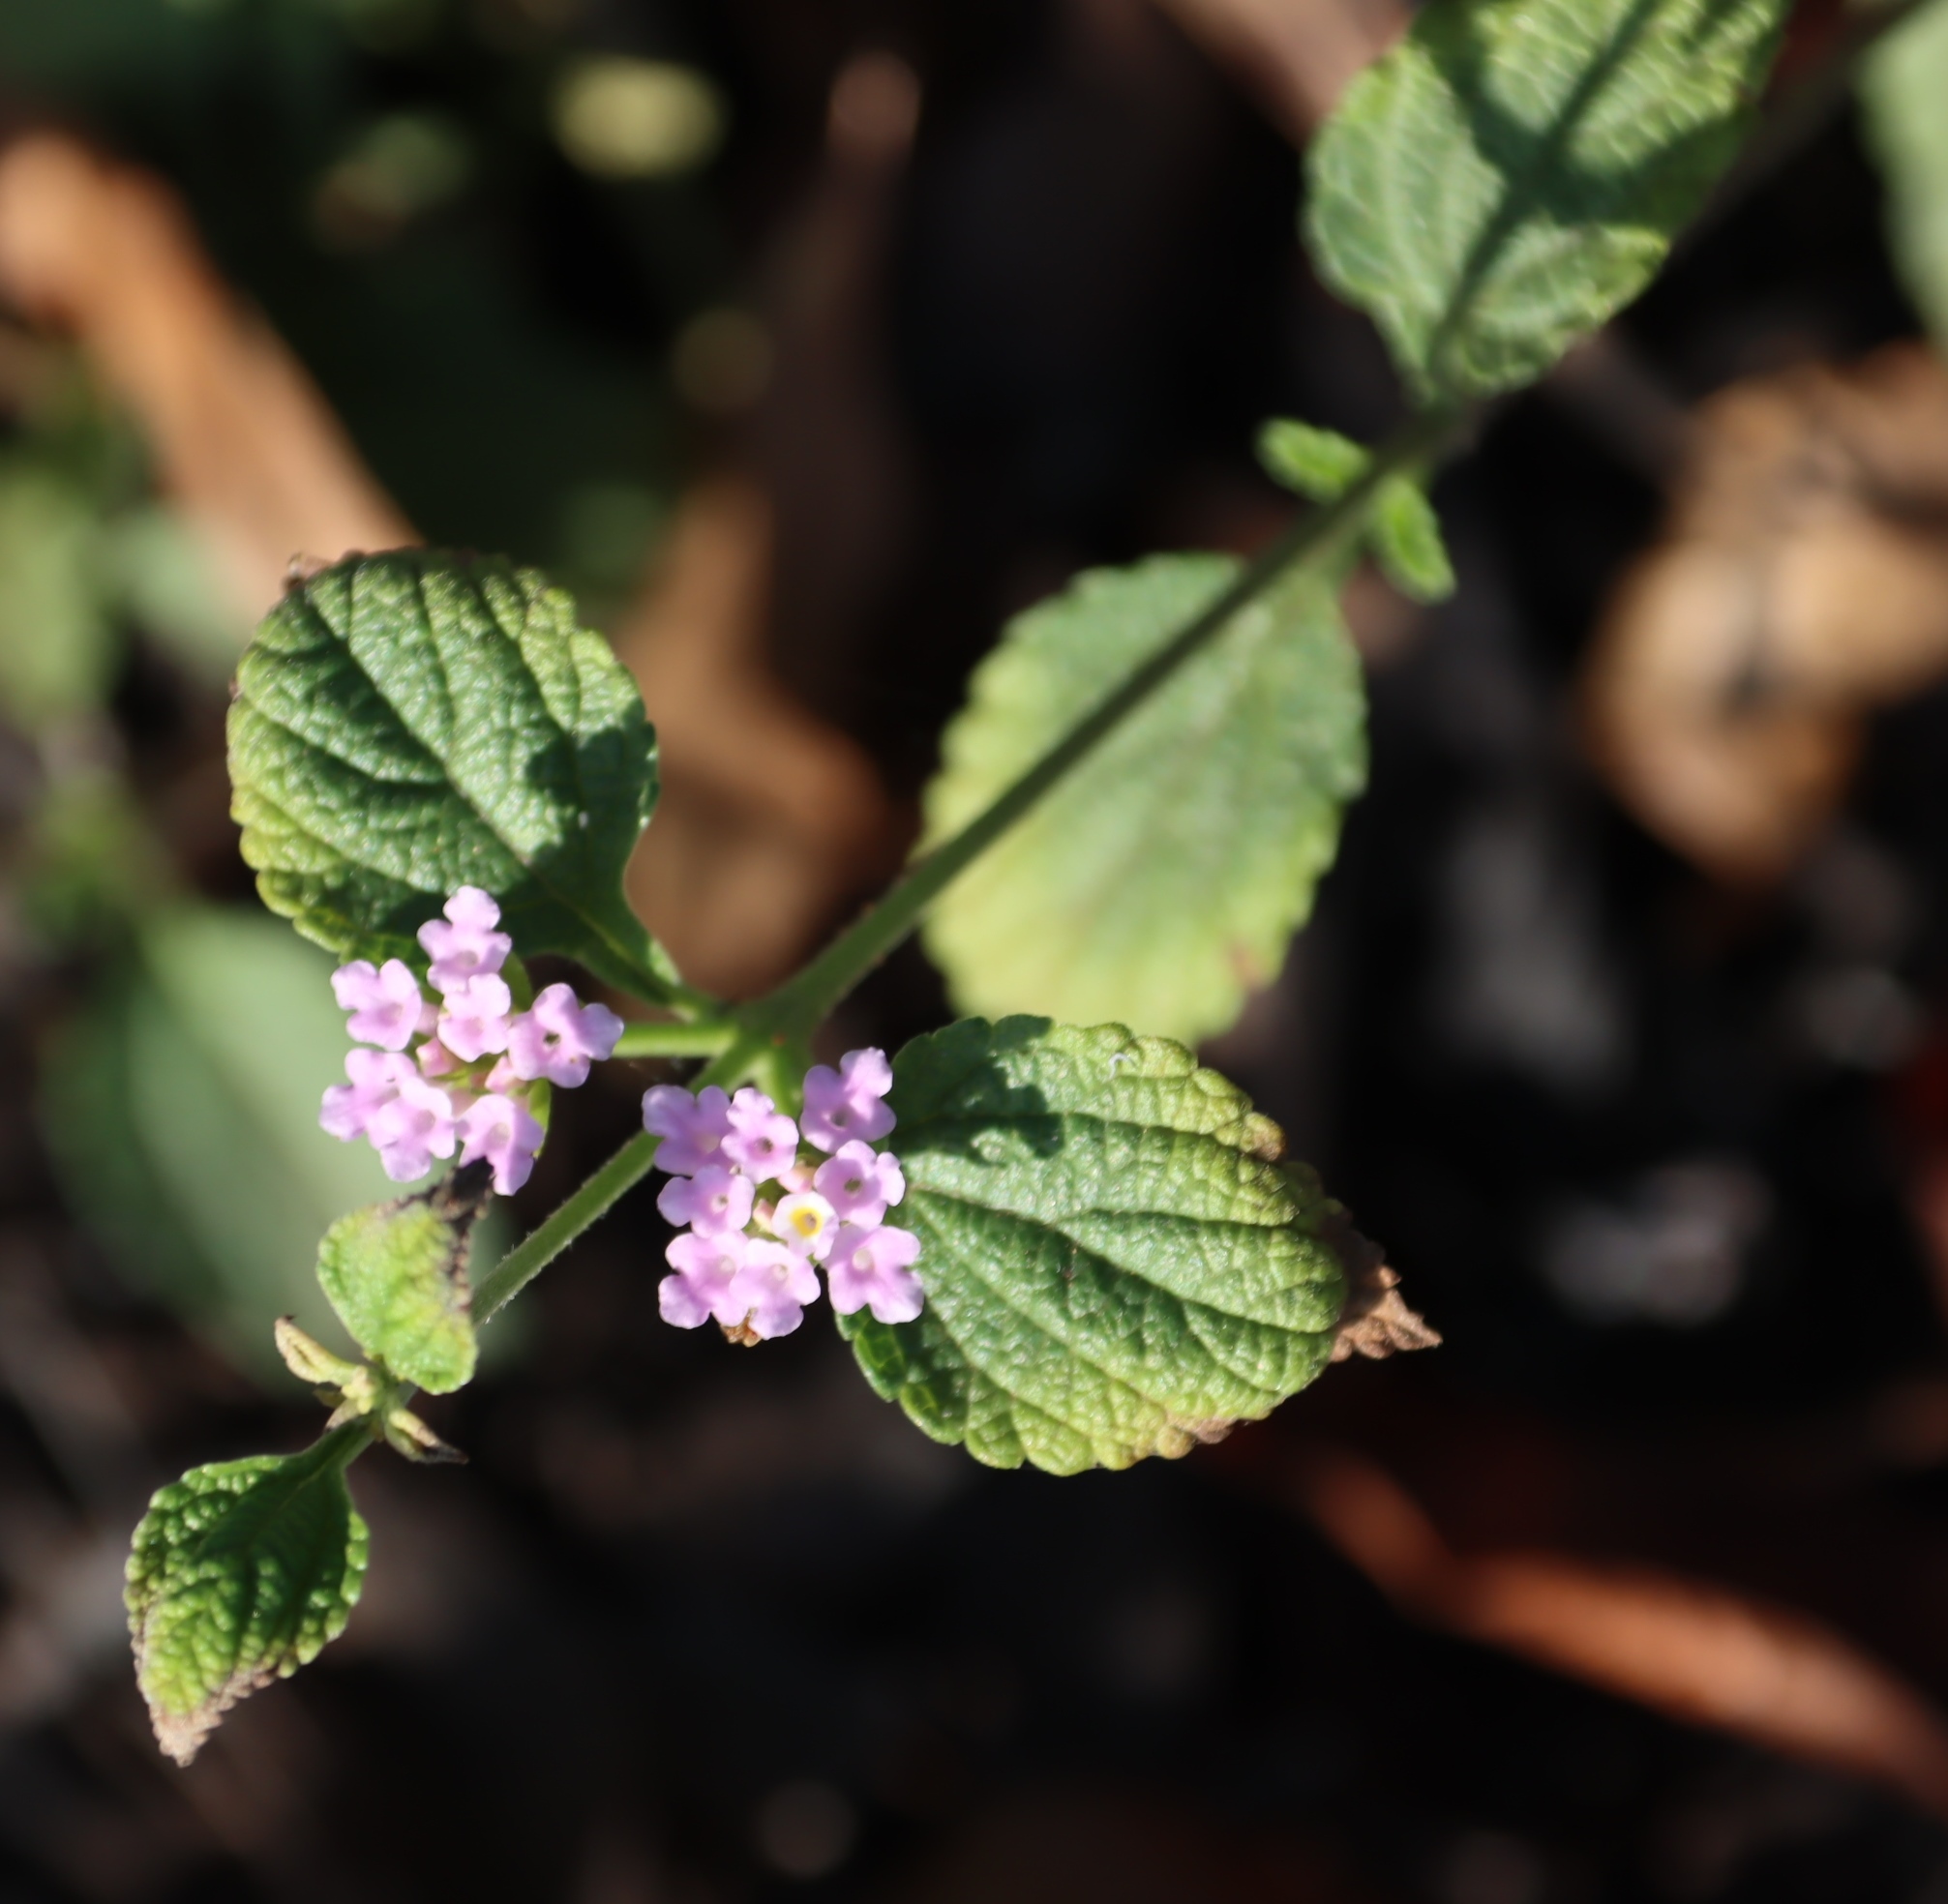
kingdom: Plantae
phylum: Tracheophyta
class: Magnoliopsida
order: Lamiales
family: Verbenaceae
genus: Lantana
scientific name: Lantana rugosa
